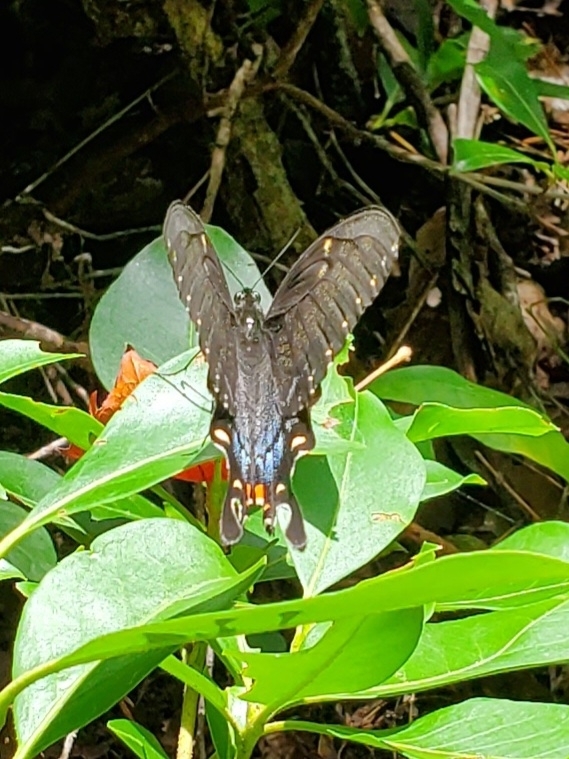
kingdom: Animalia
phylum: Arthropoda
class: Insecta
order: Lepidoptera
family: Papilionidae
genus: Papilio
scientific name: Papilio glaucus
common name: Tiger swallowtail
